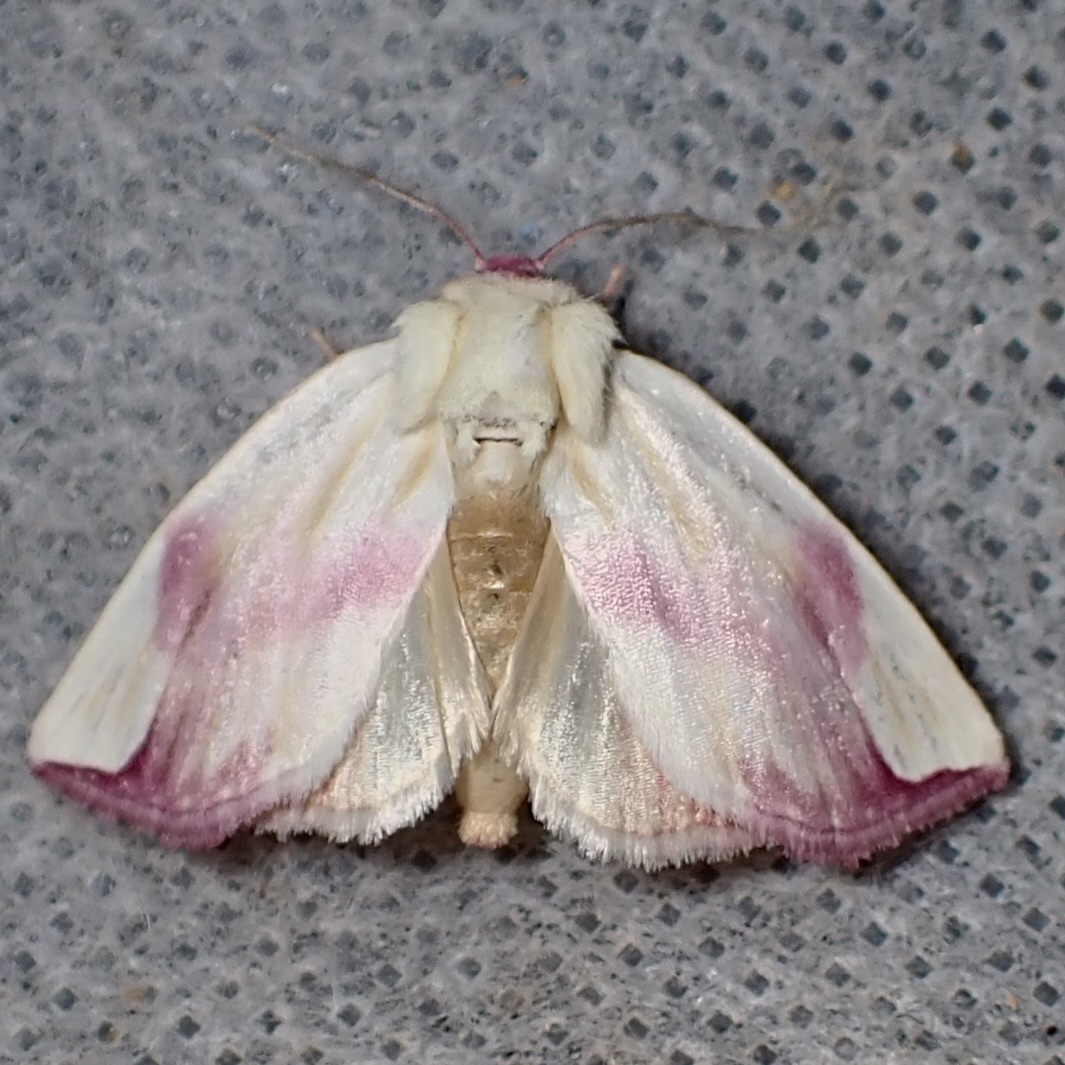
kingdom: Animalia
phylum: Arthropoda
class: Insecta
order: Lepidoptera
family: Noctuidae
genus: Thurberiphaga
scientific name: Thurberiphaga diffusa
